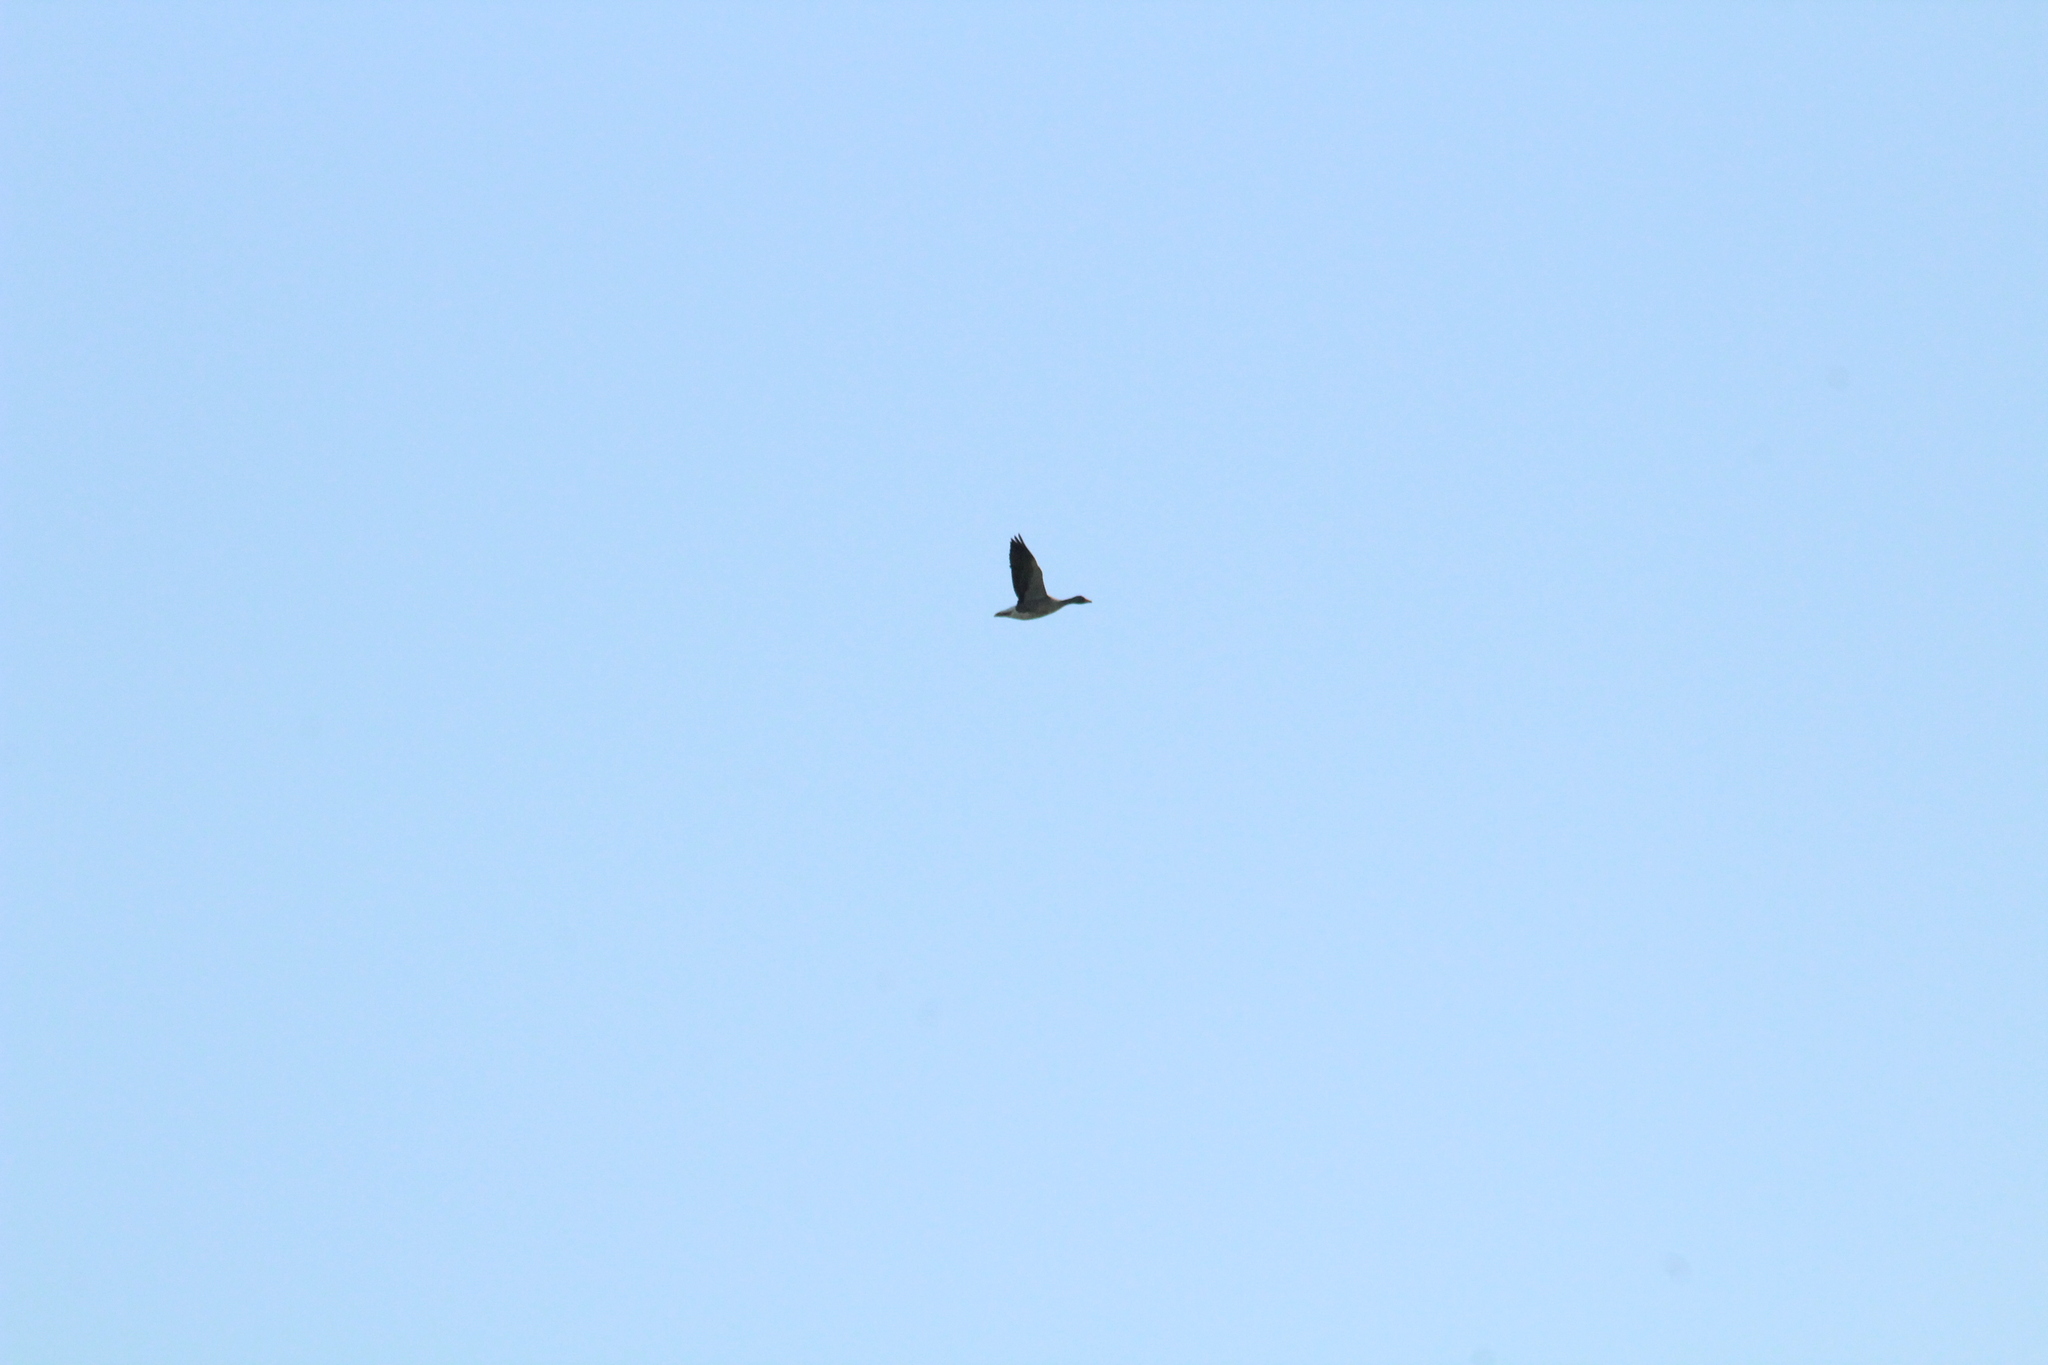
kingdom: Animalia
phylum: Chordata
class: Aves
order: Anseriformes
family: Anatidae
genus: Anser
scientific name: Anser anser
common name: Greylag goose
